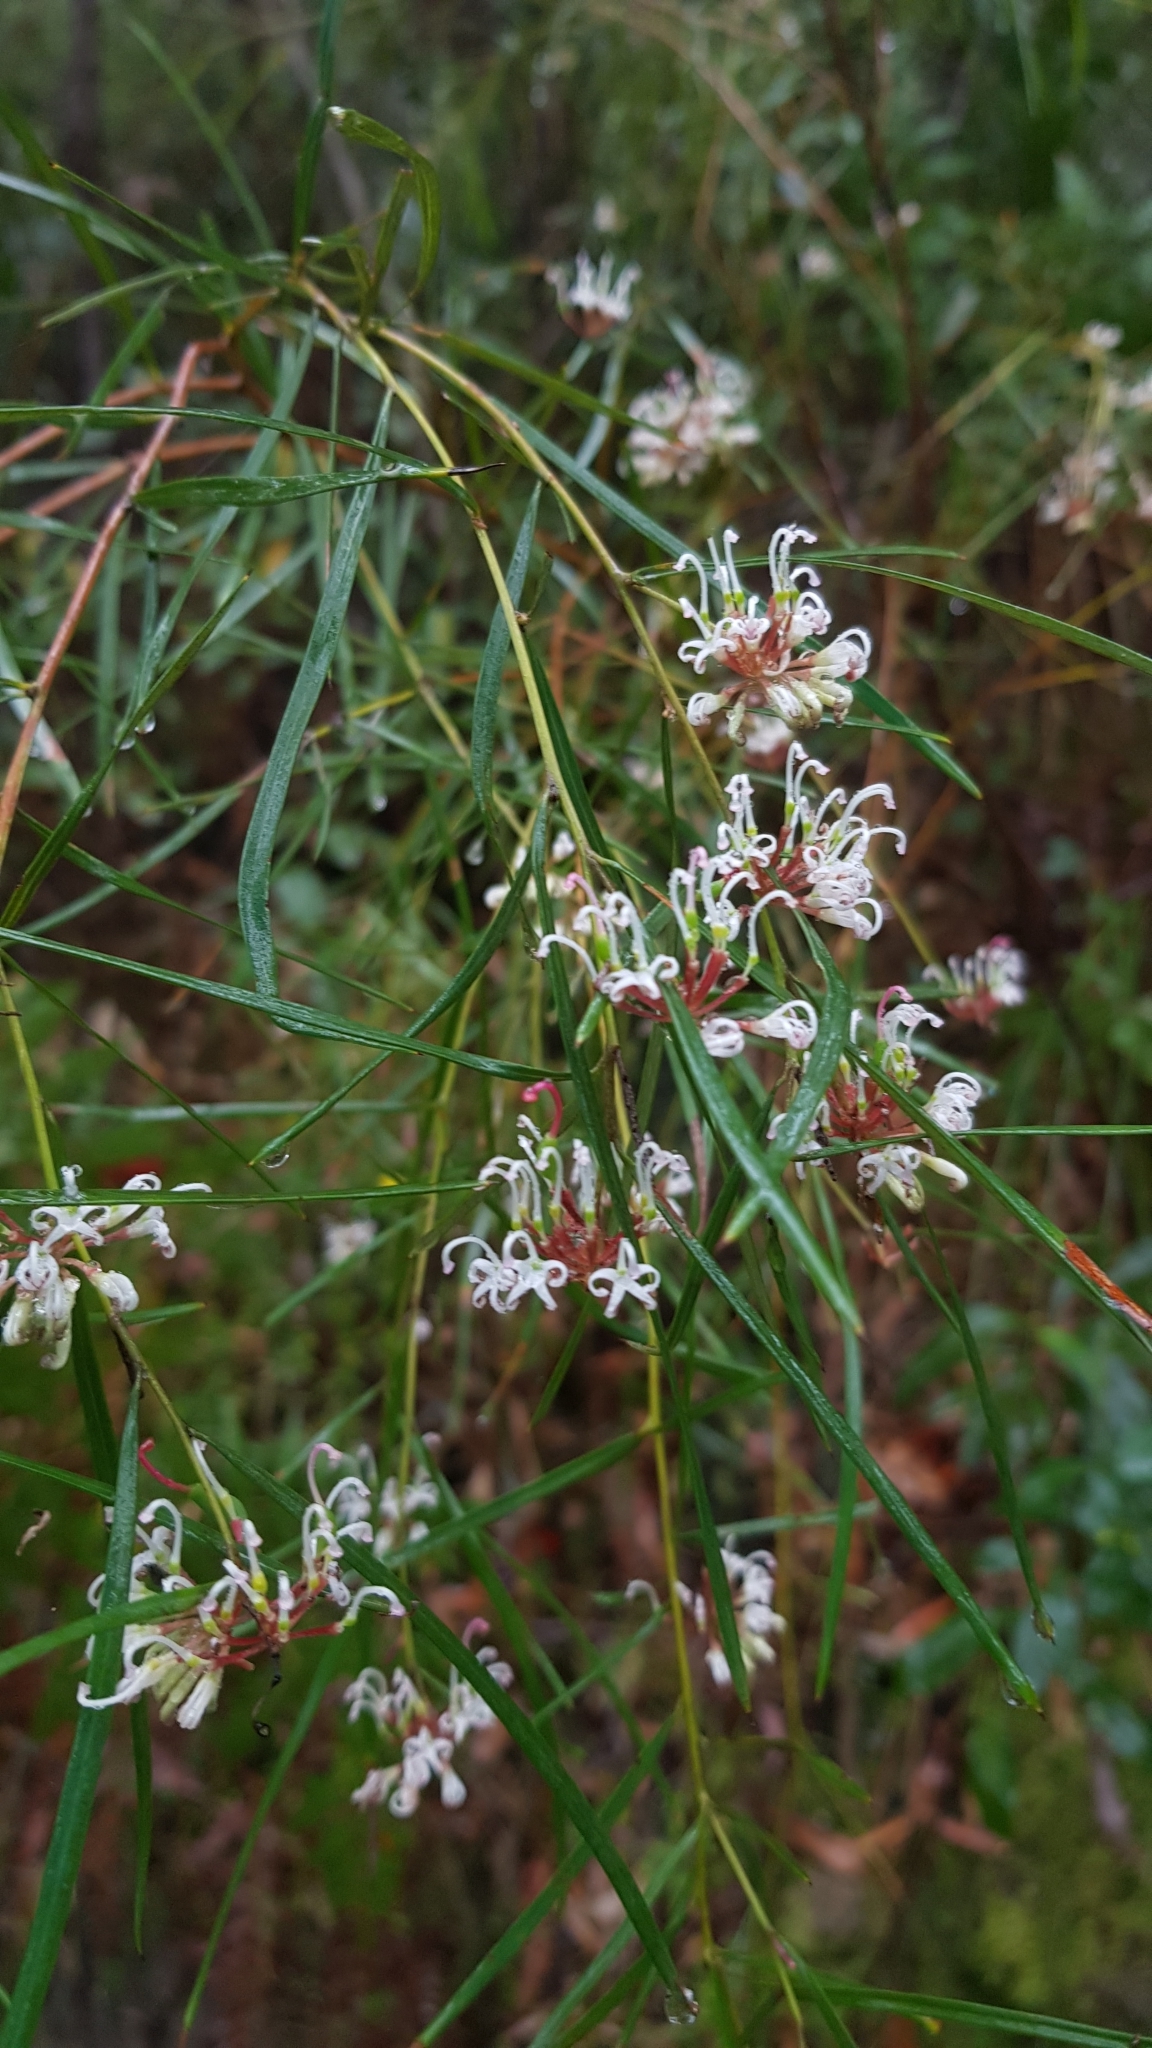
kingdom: Plantae
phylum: Tracheophyta
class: Magnoliopsida
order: Proteales
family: Proteaceae
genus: Grevillea
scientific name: Grevillea linearifolia
